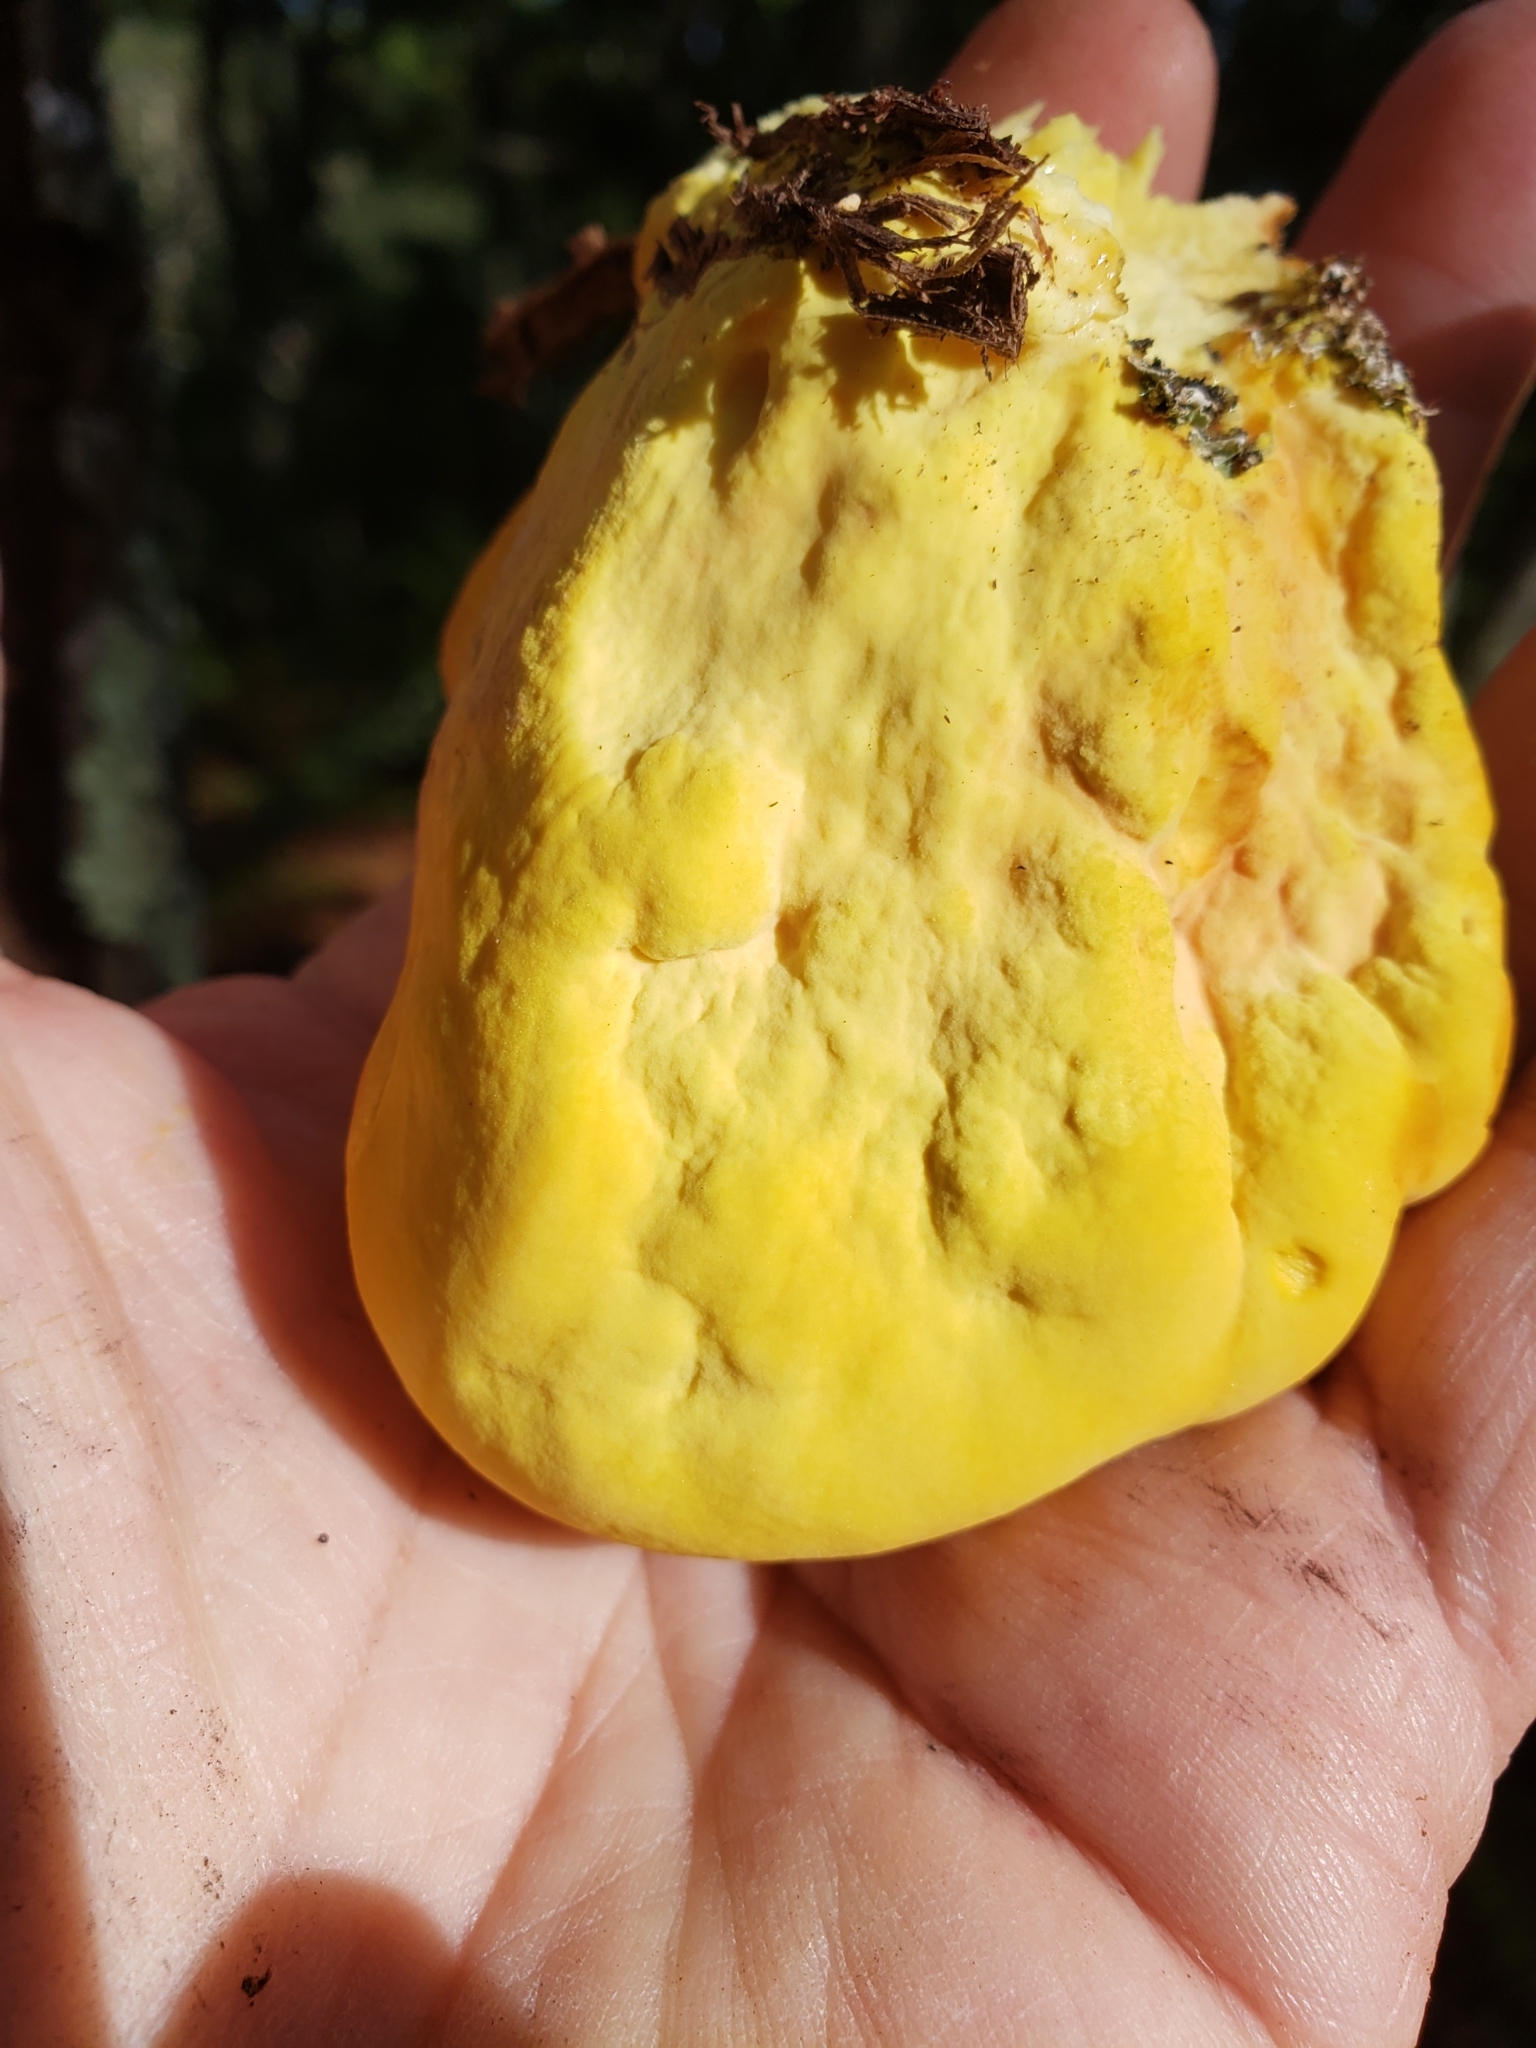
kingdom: Fungi
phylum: Basidiomycota
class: Agaricomycetes
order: Polyporales
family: Laetiporaceae
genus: Laetiporus
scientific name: Laetiporus sulphureus
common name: Chicken of the woods
